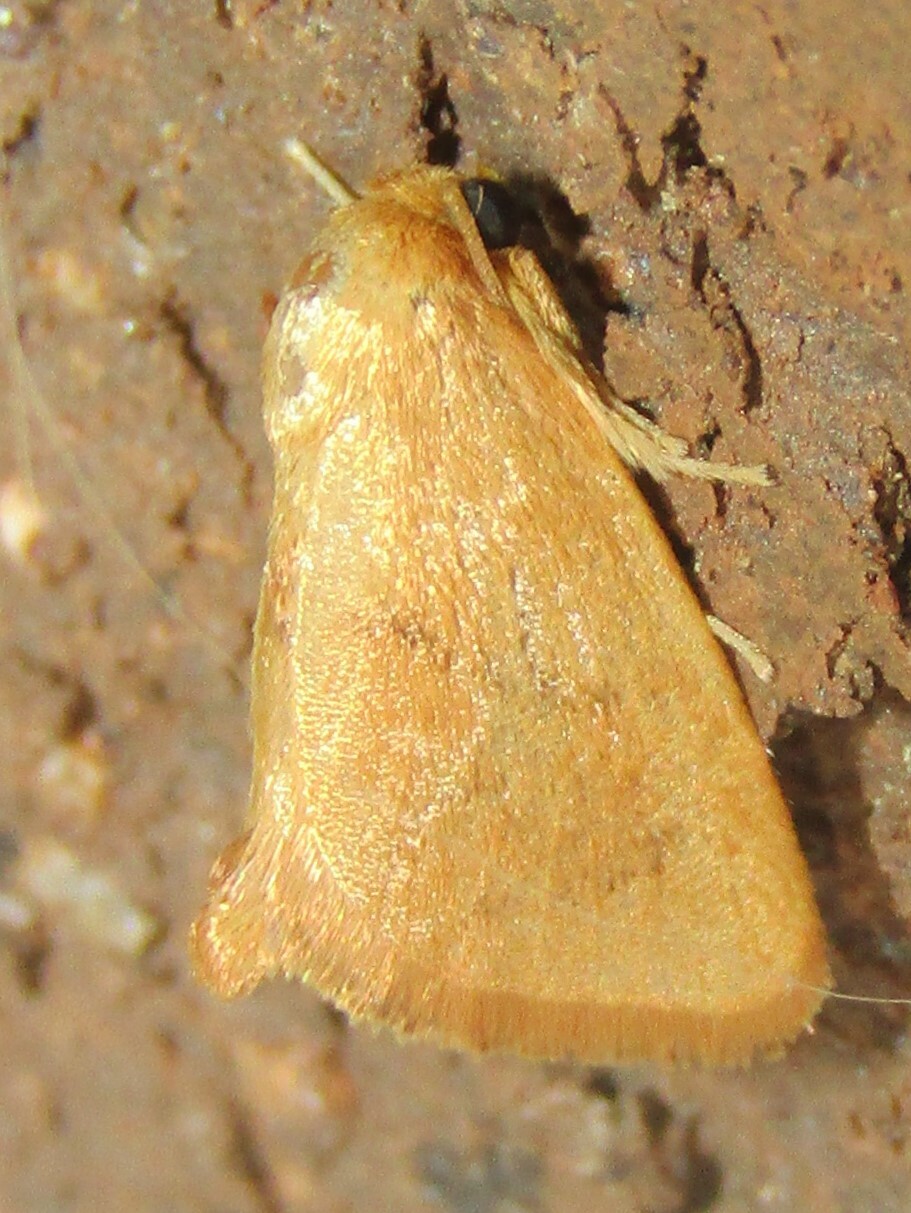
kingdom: Animalia
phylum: Arthropoda
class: Insecta
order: Lepidoptera
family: Limacodidae
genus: Tortricidia
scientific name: Tortricidia pallida
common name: Red-crossed button slug moth
